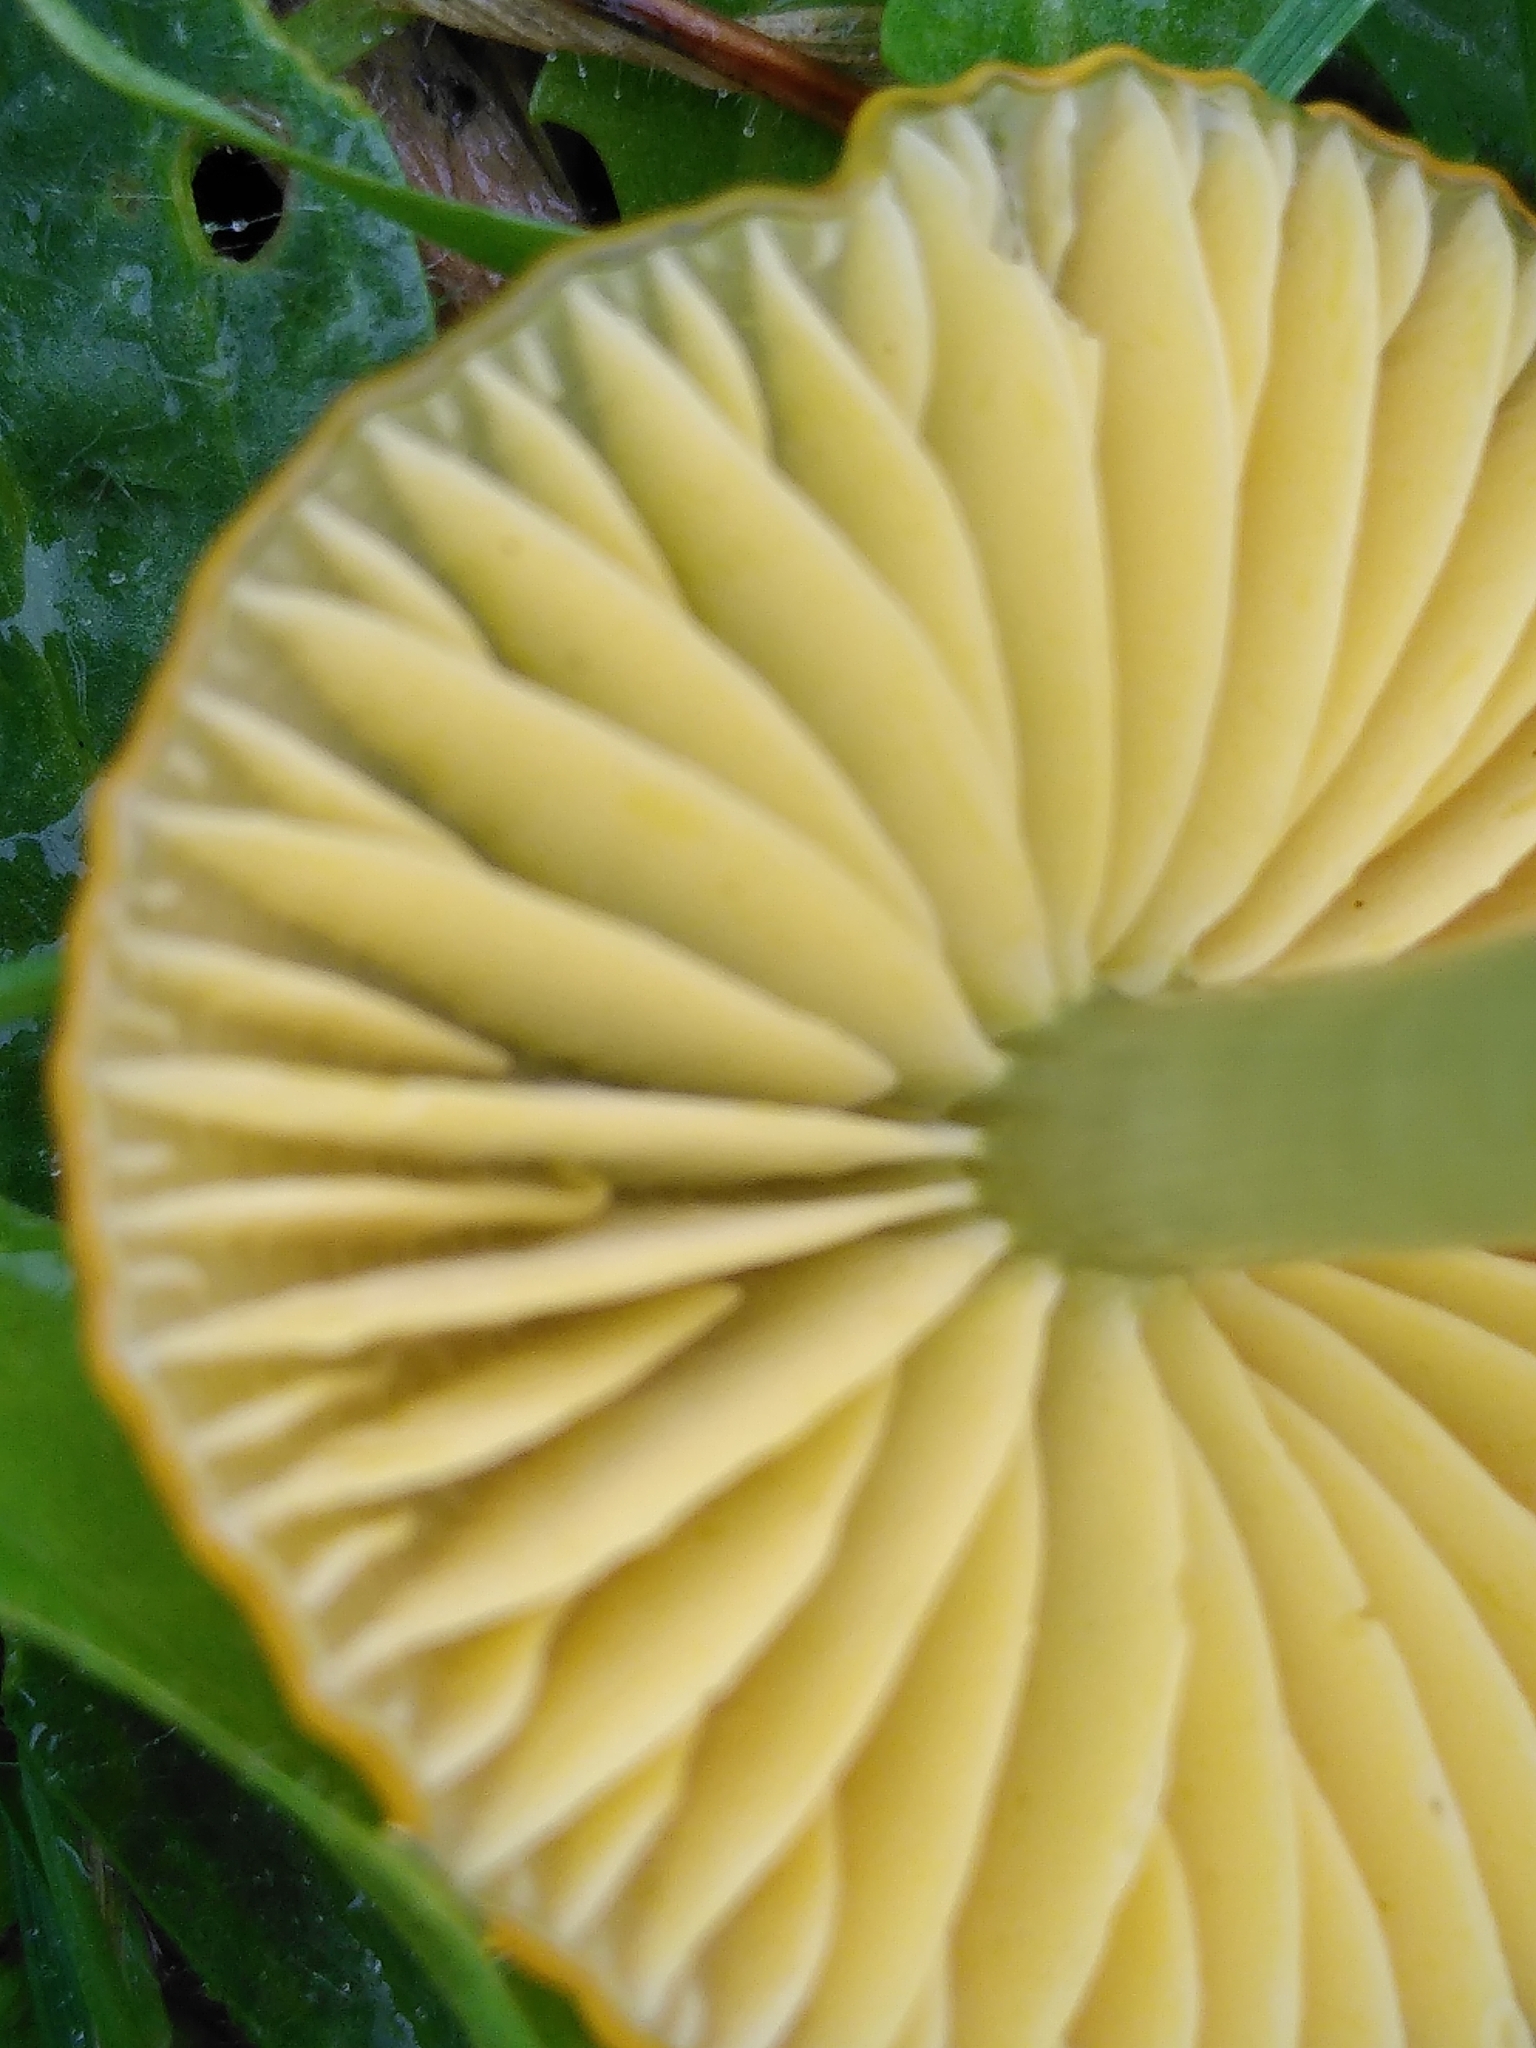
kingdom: Fungi
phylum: Basidiomycota
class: Agaricomycetes
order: Agaricales
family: Hygrophoraceae
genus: Gliophorus
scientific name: Gliophorus psittacinus
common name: Parrot wax-cap
